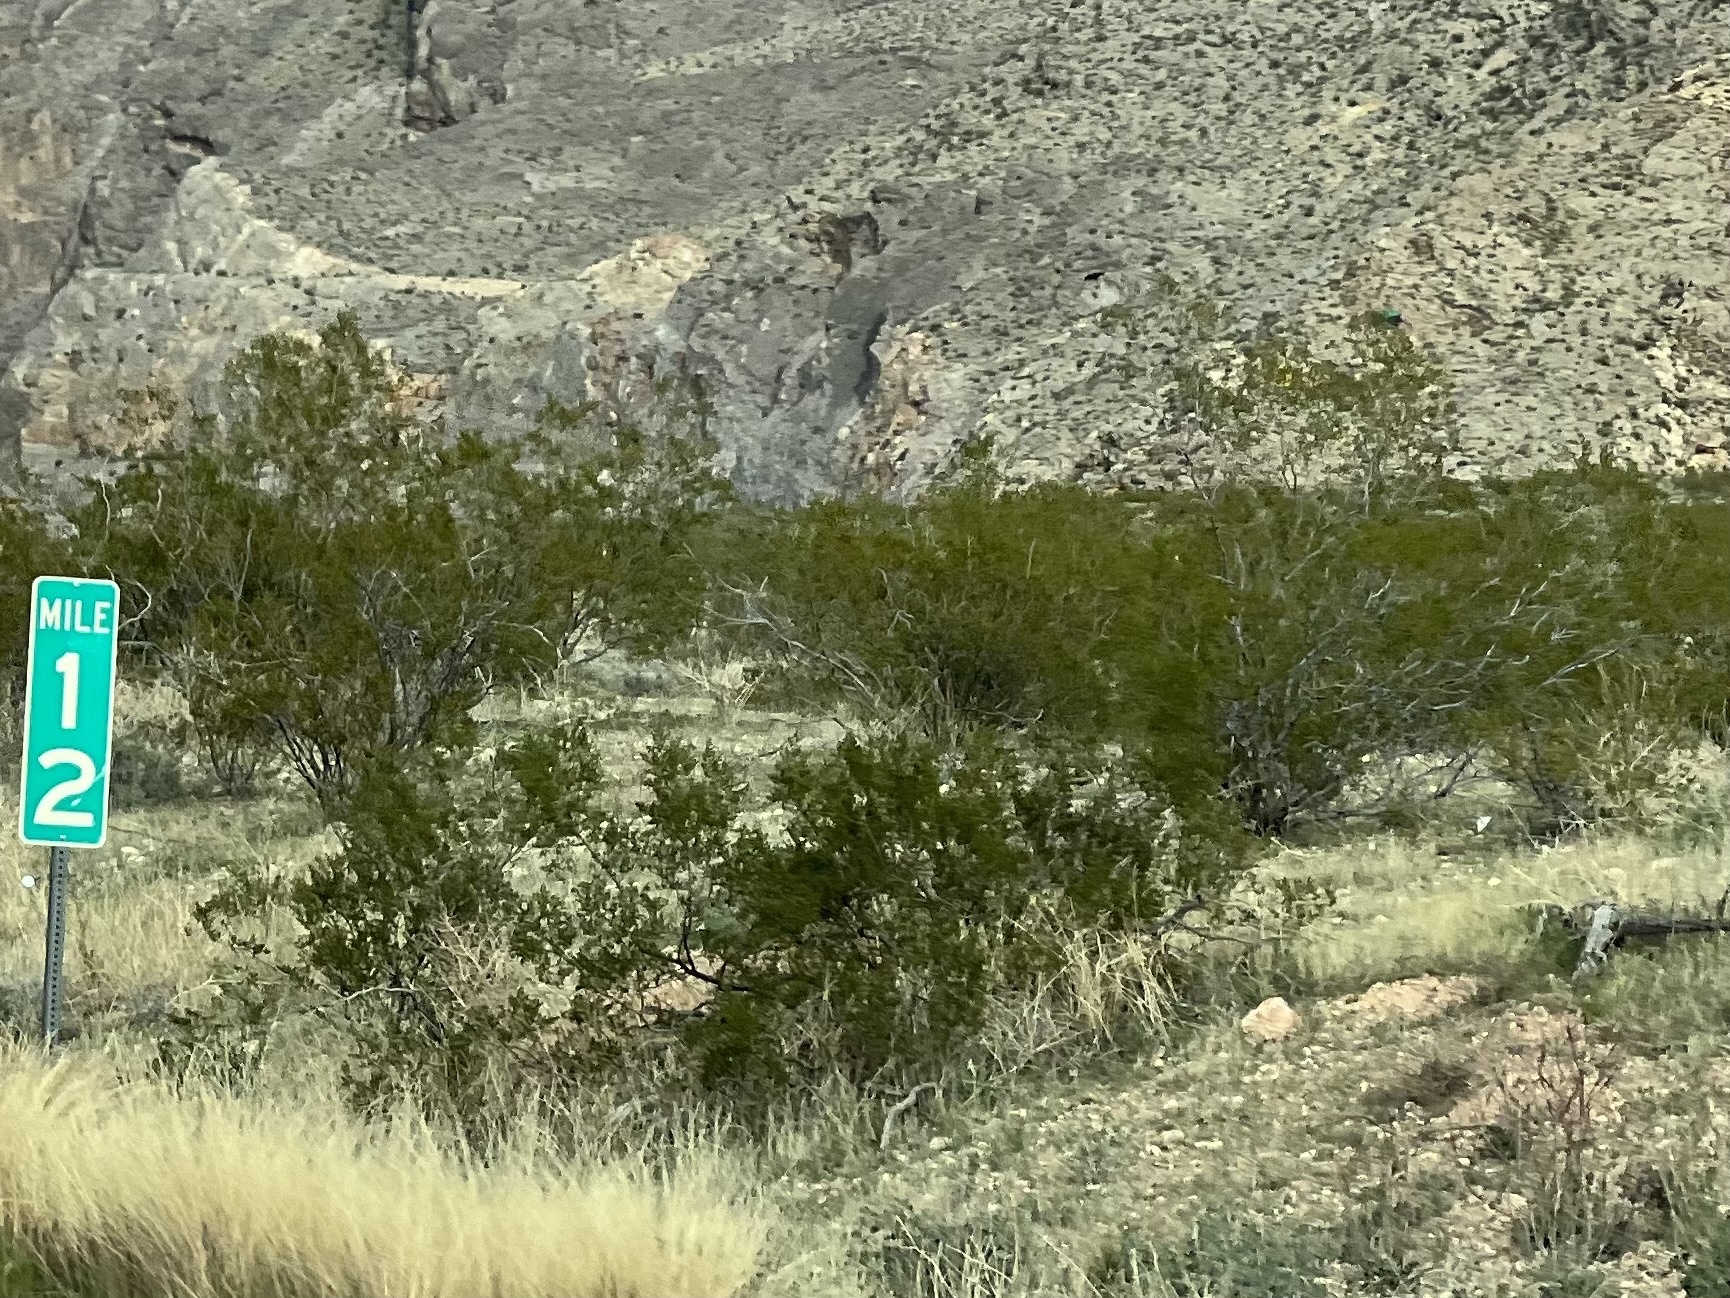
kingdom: Plantae
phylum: Tracheophyta
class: Magnoliopsida
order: Zygophyllales
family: Zygophyllaceae
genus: Larrea
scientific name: Larrea tridentata
